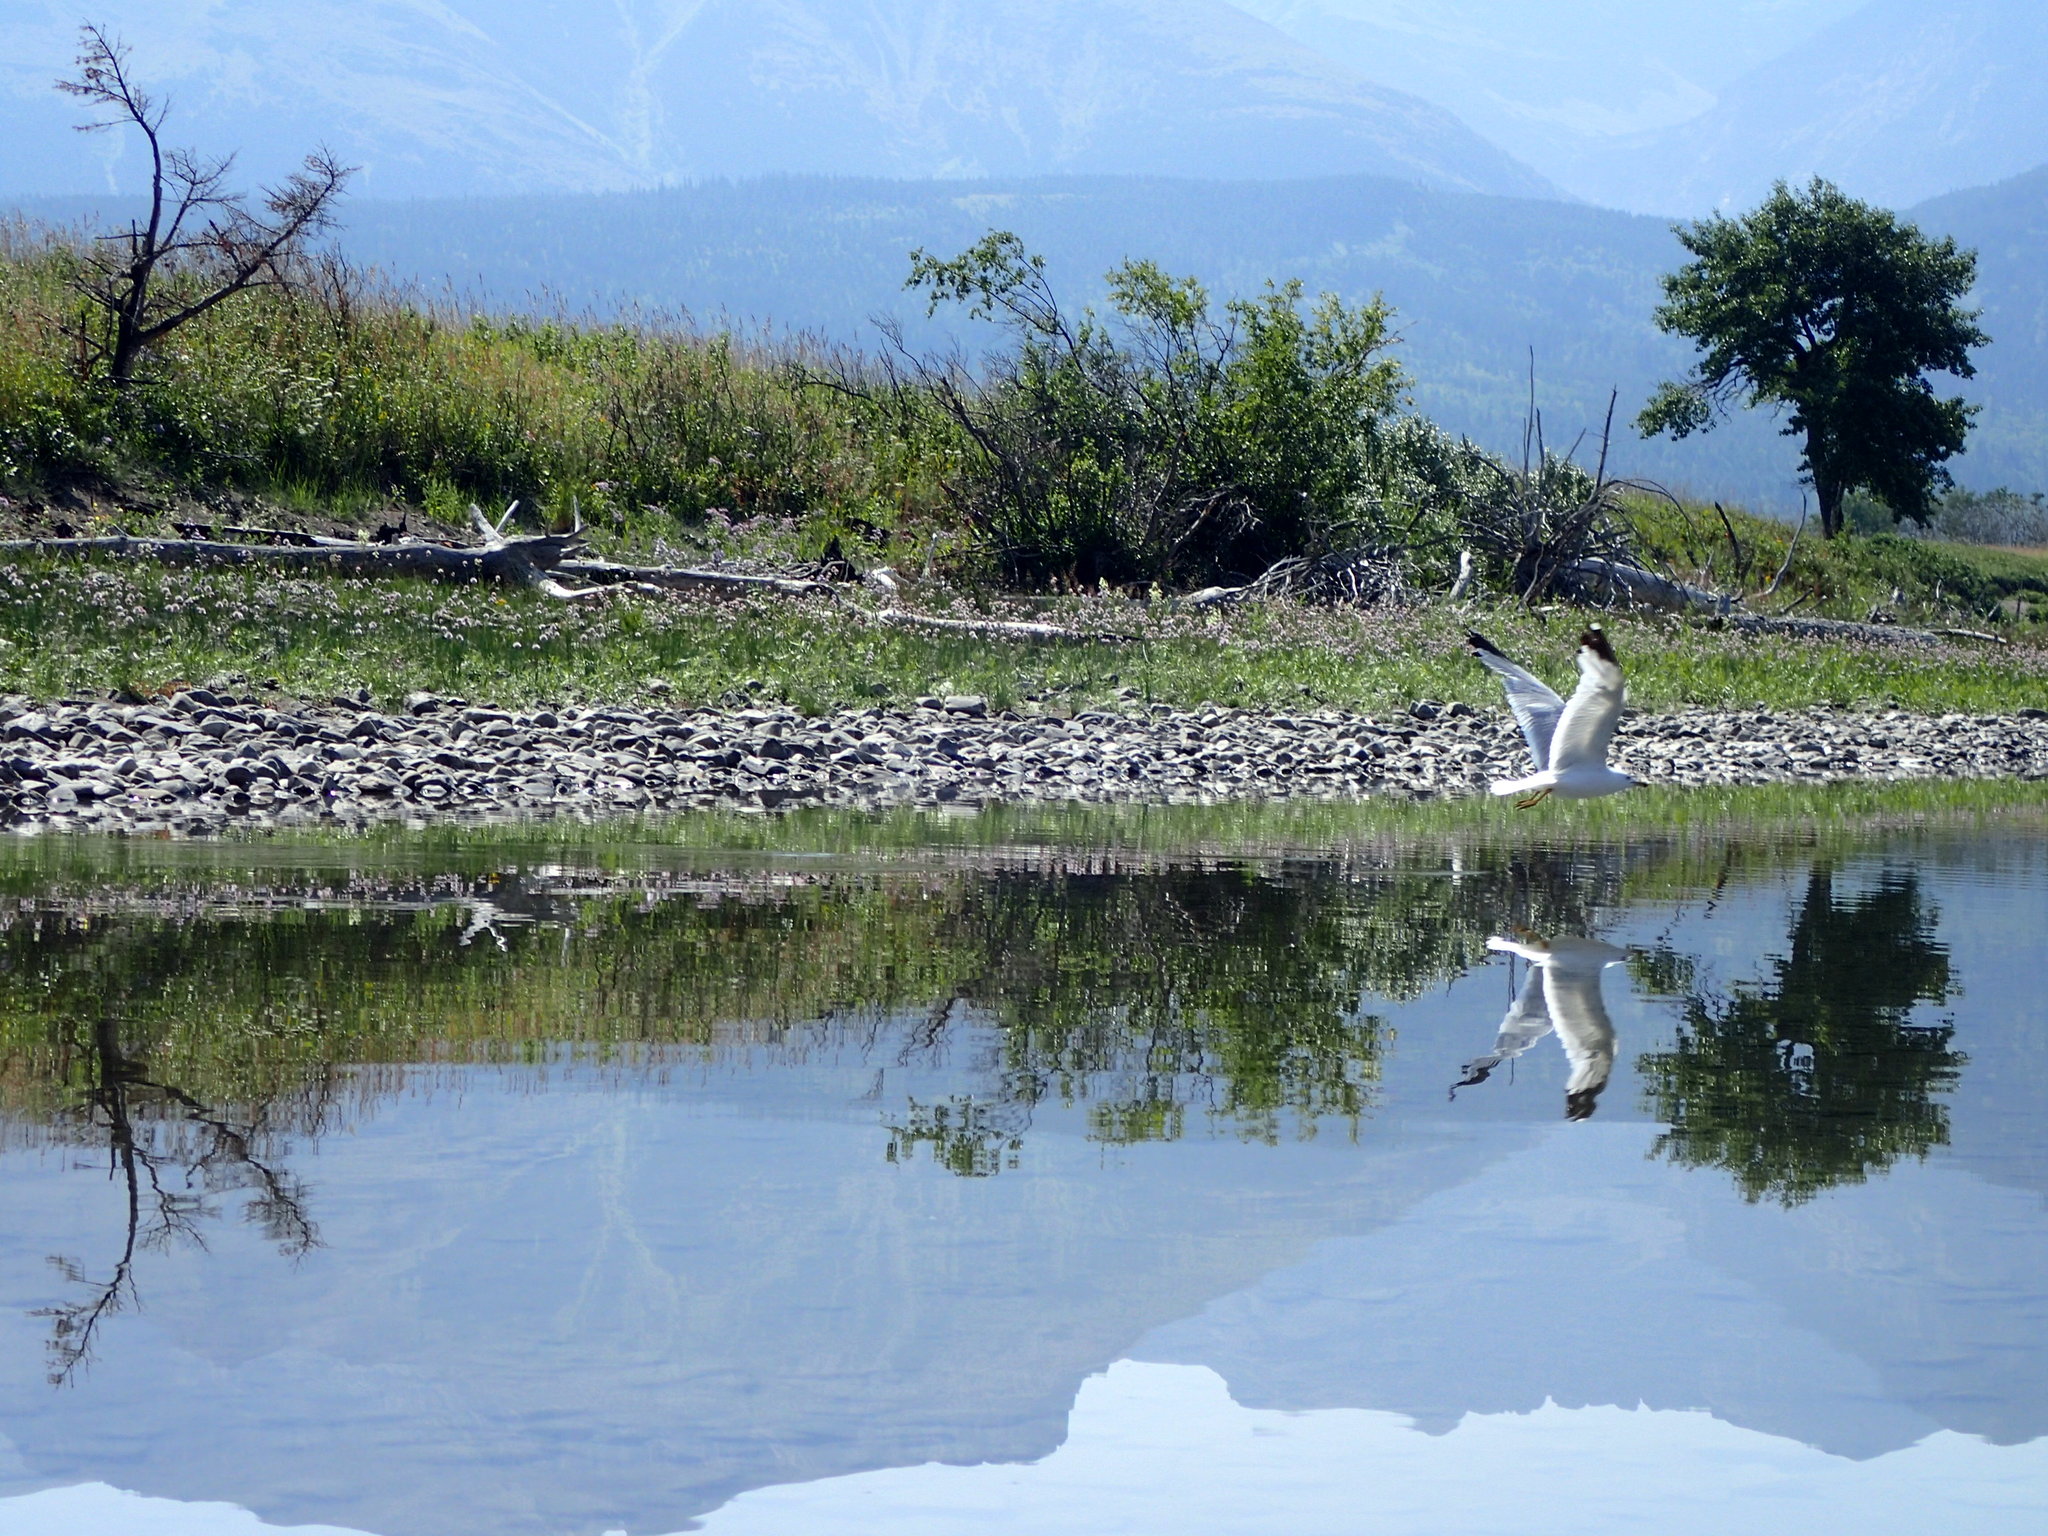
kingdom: Animalia
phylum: Chordata
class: Aves
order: Charadriiformes
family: Laridae
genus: Larus
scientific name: Larus delawarensis
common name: Ring-billed gull
